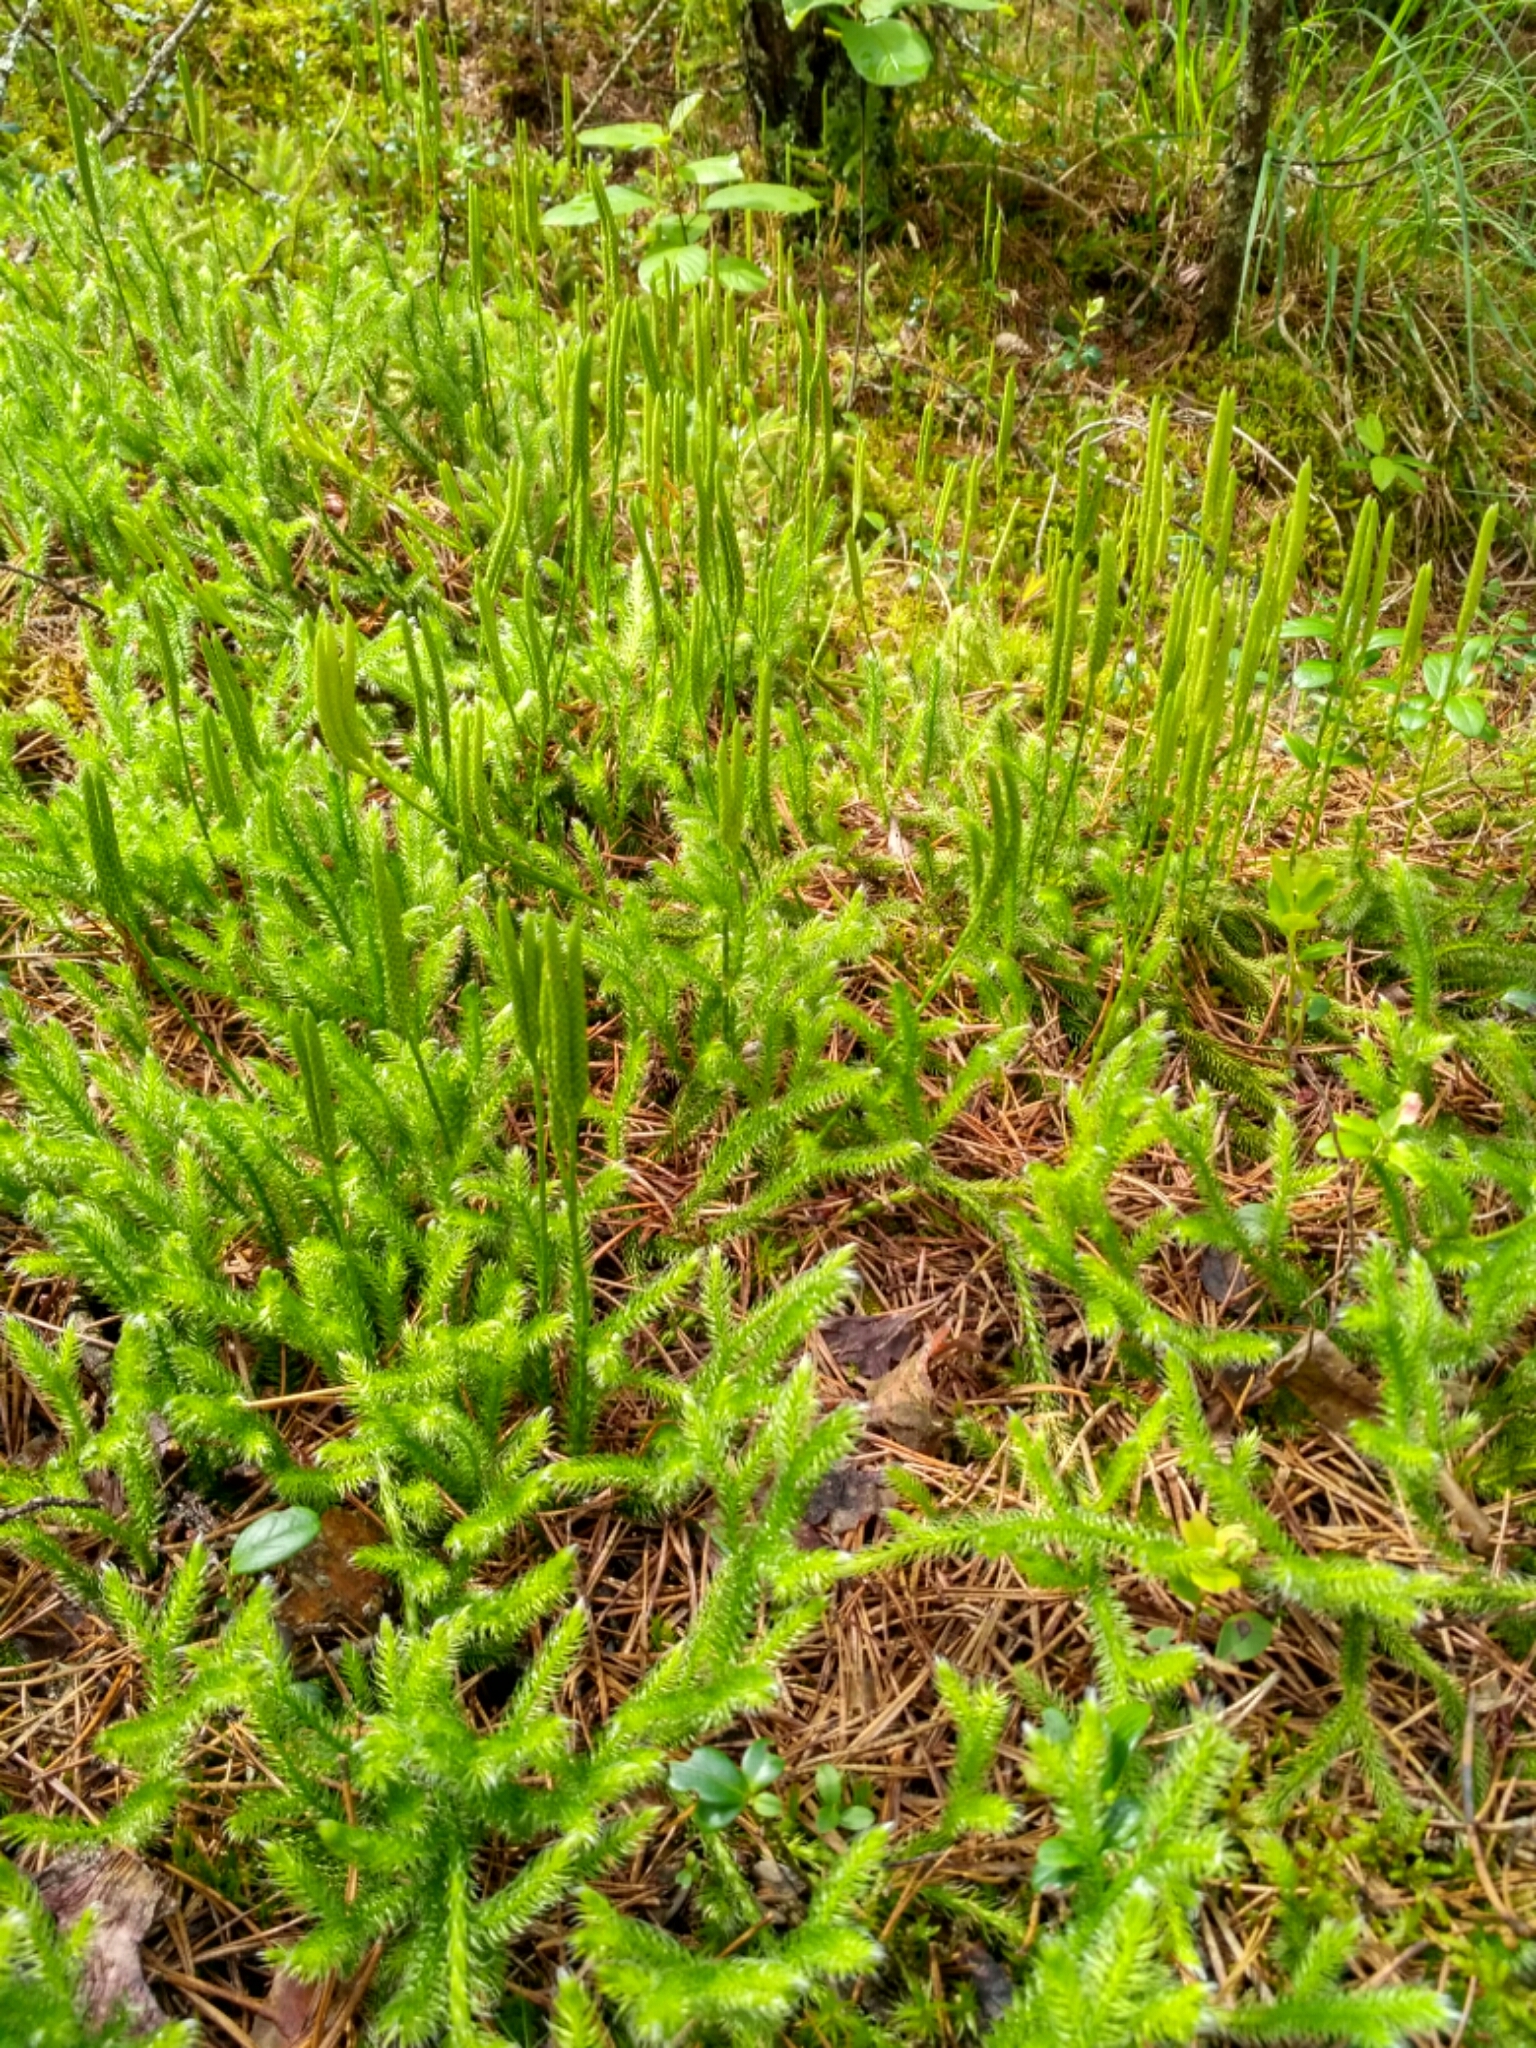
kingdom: Plantae
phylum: Tracheophyta
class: Lycopodiopsida
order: Lycopodiales
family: Lycopodiaceae
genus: Lycopodium
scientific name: Lycopodium clavatum
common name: Stag's-horn clubmoss
